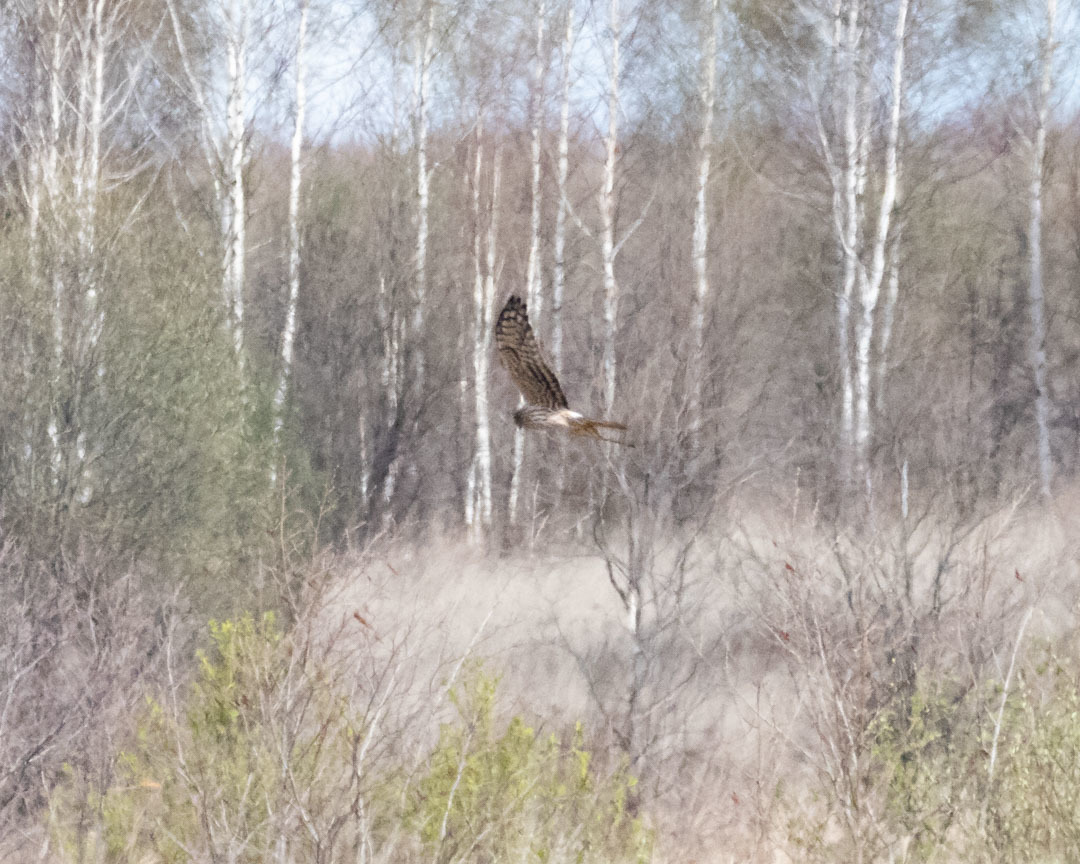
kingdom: Animalia
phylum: Chordata
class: Aves
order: Accipitriformes
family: Accipitridae
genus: Circus
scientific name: Circus pygargus
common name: Montagu's harrier
